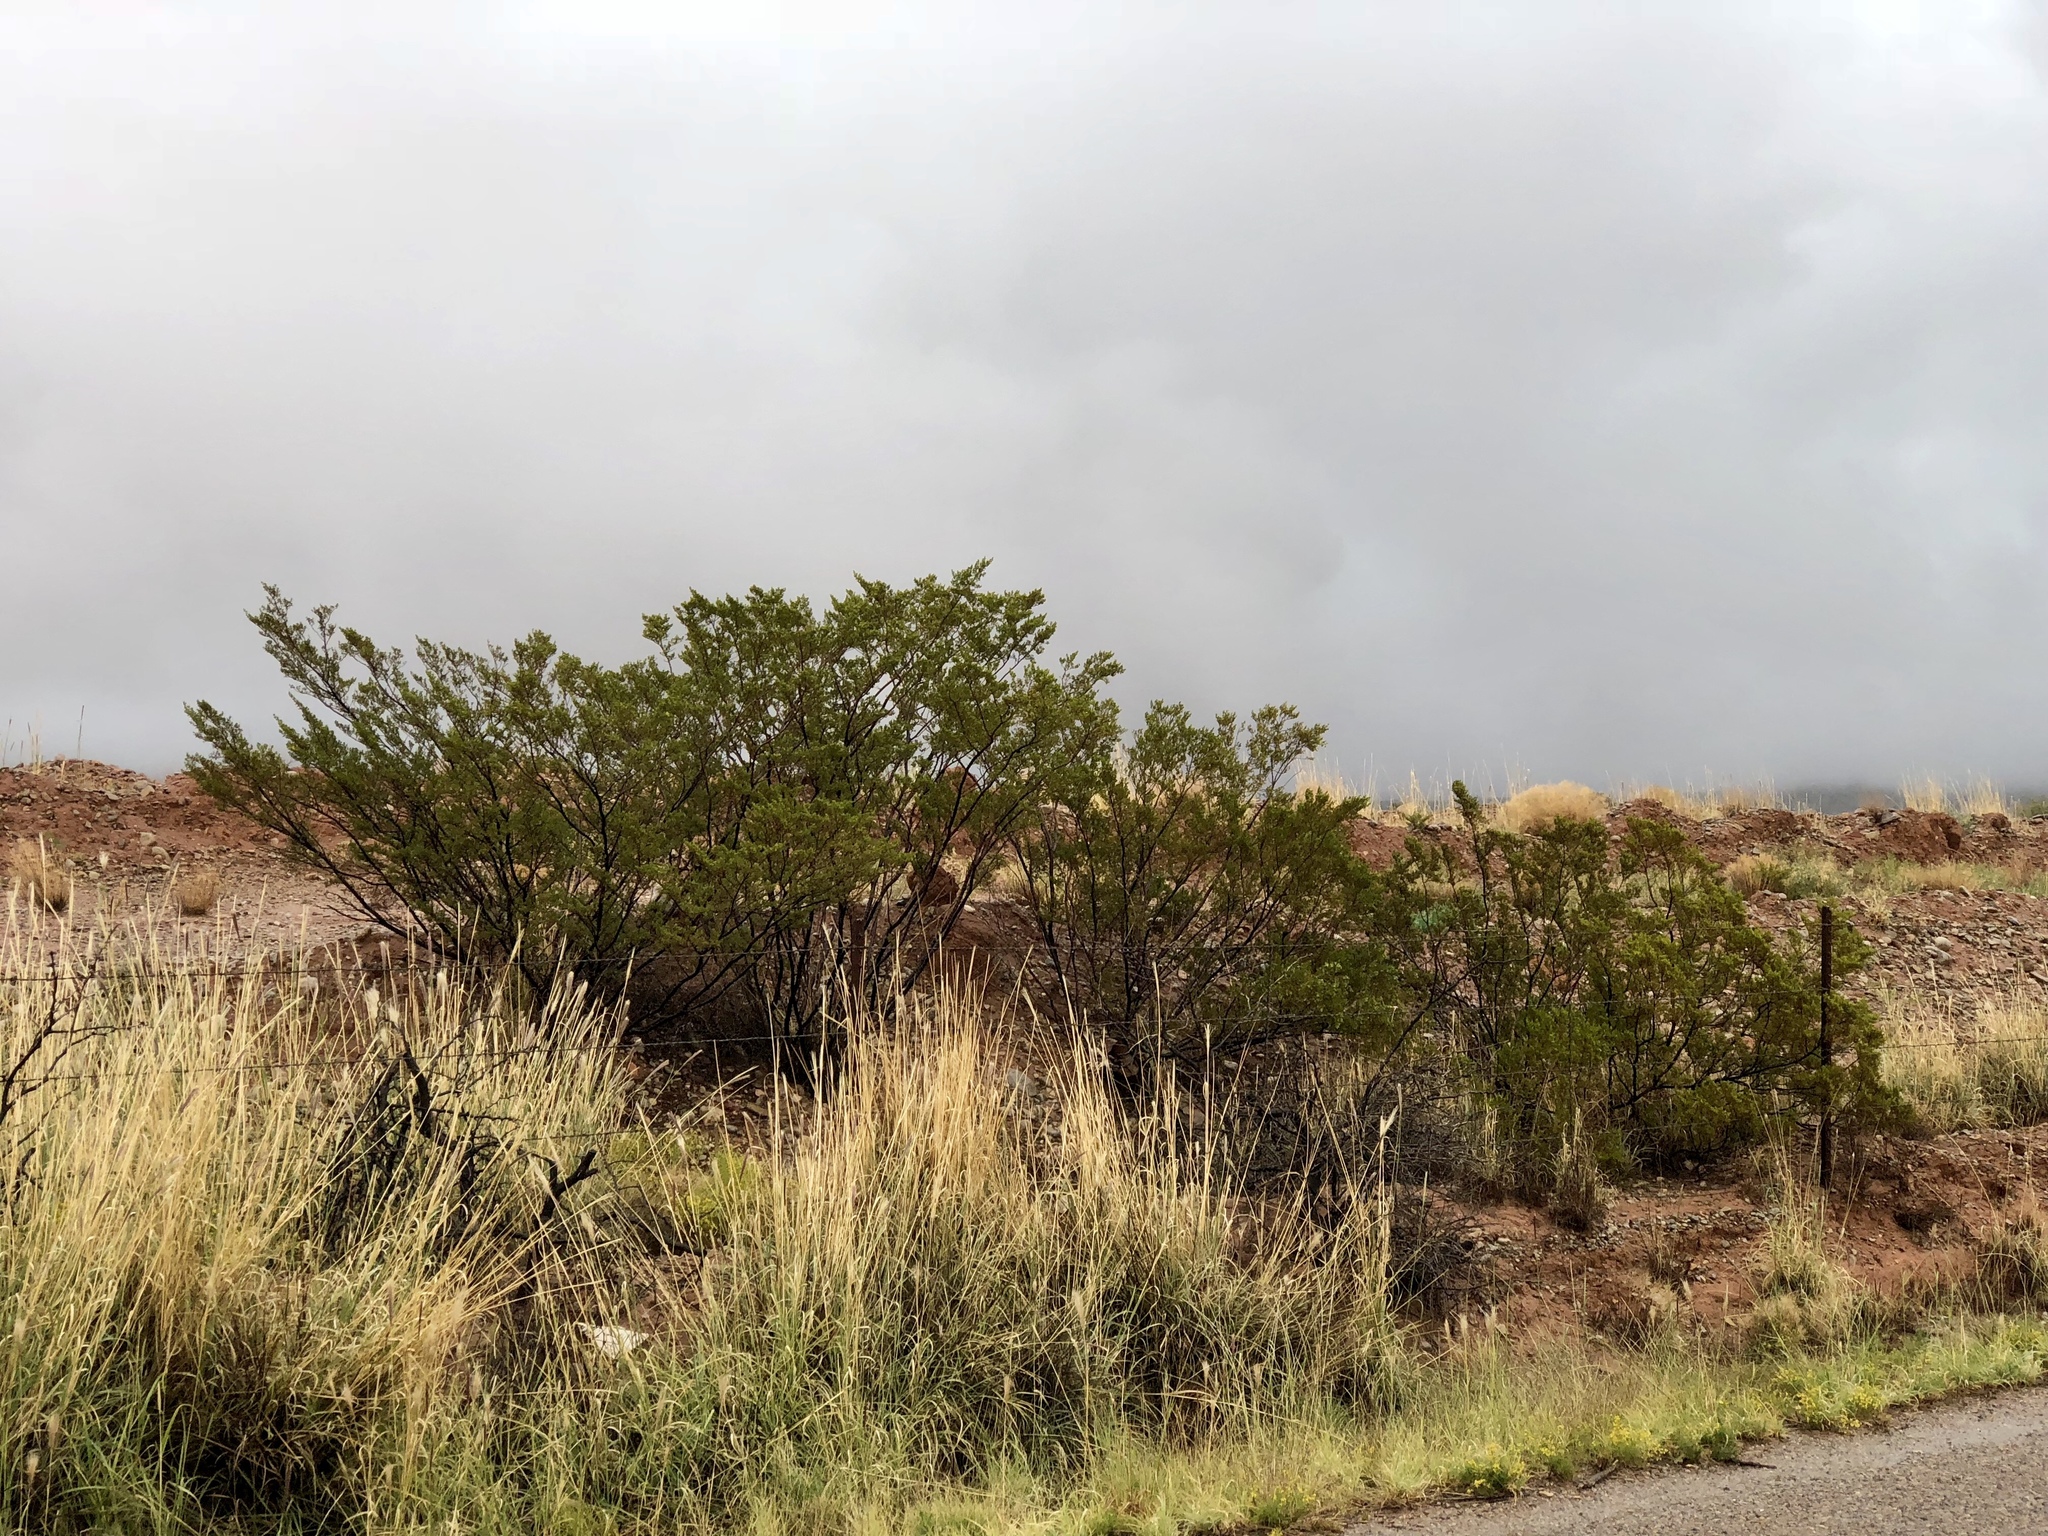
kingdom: Plantae
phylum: Tracheophyta
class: Magnoliopsida
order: Zygophyllales
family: Zygophyllaceae
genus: Larrea
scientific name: Larrea tridentata
